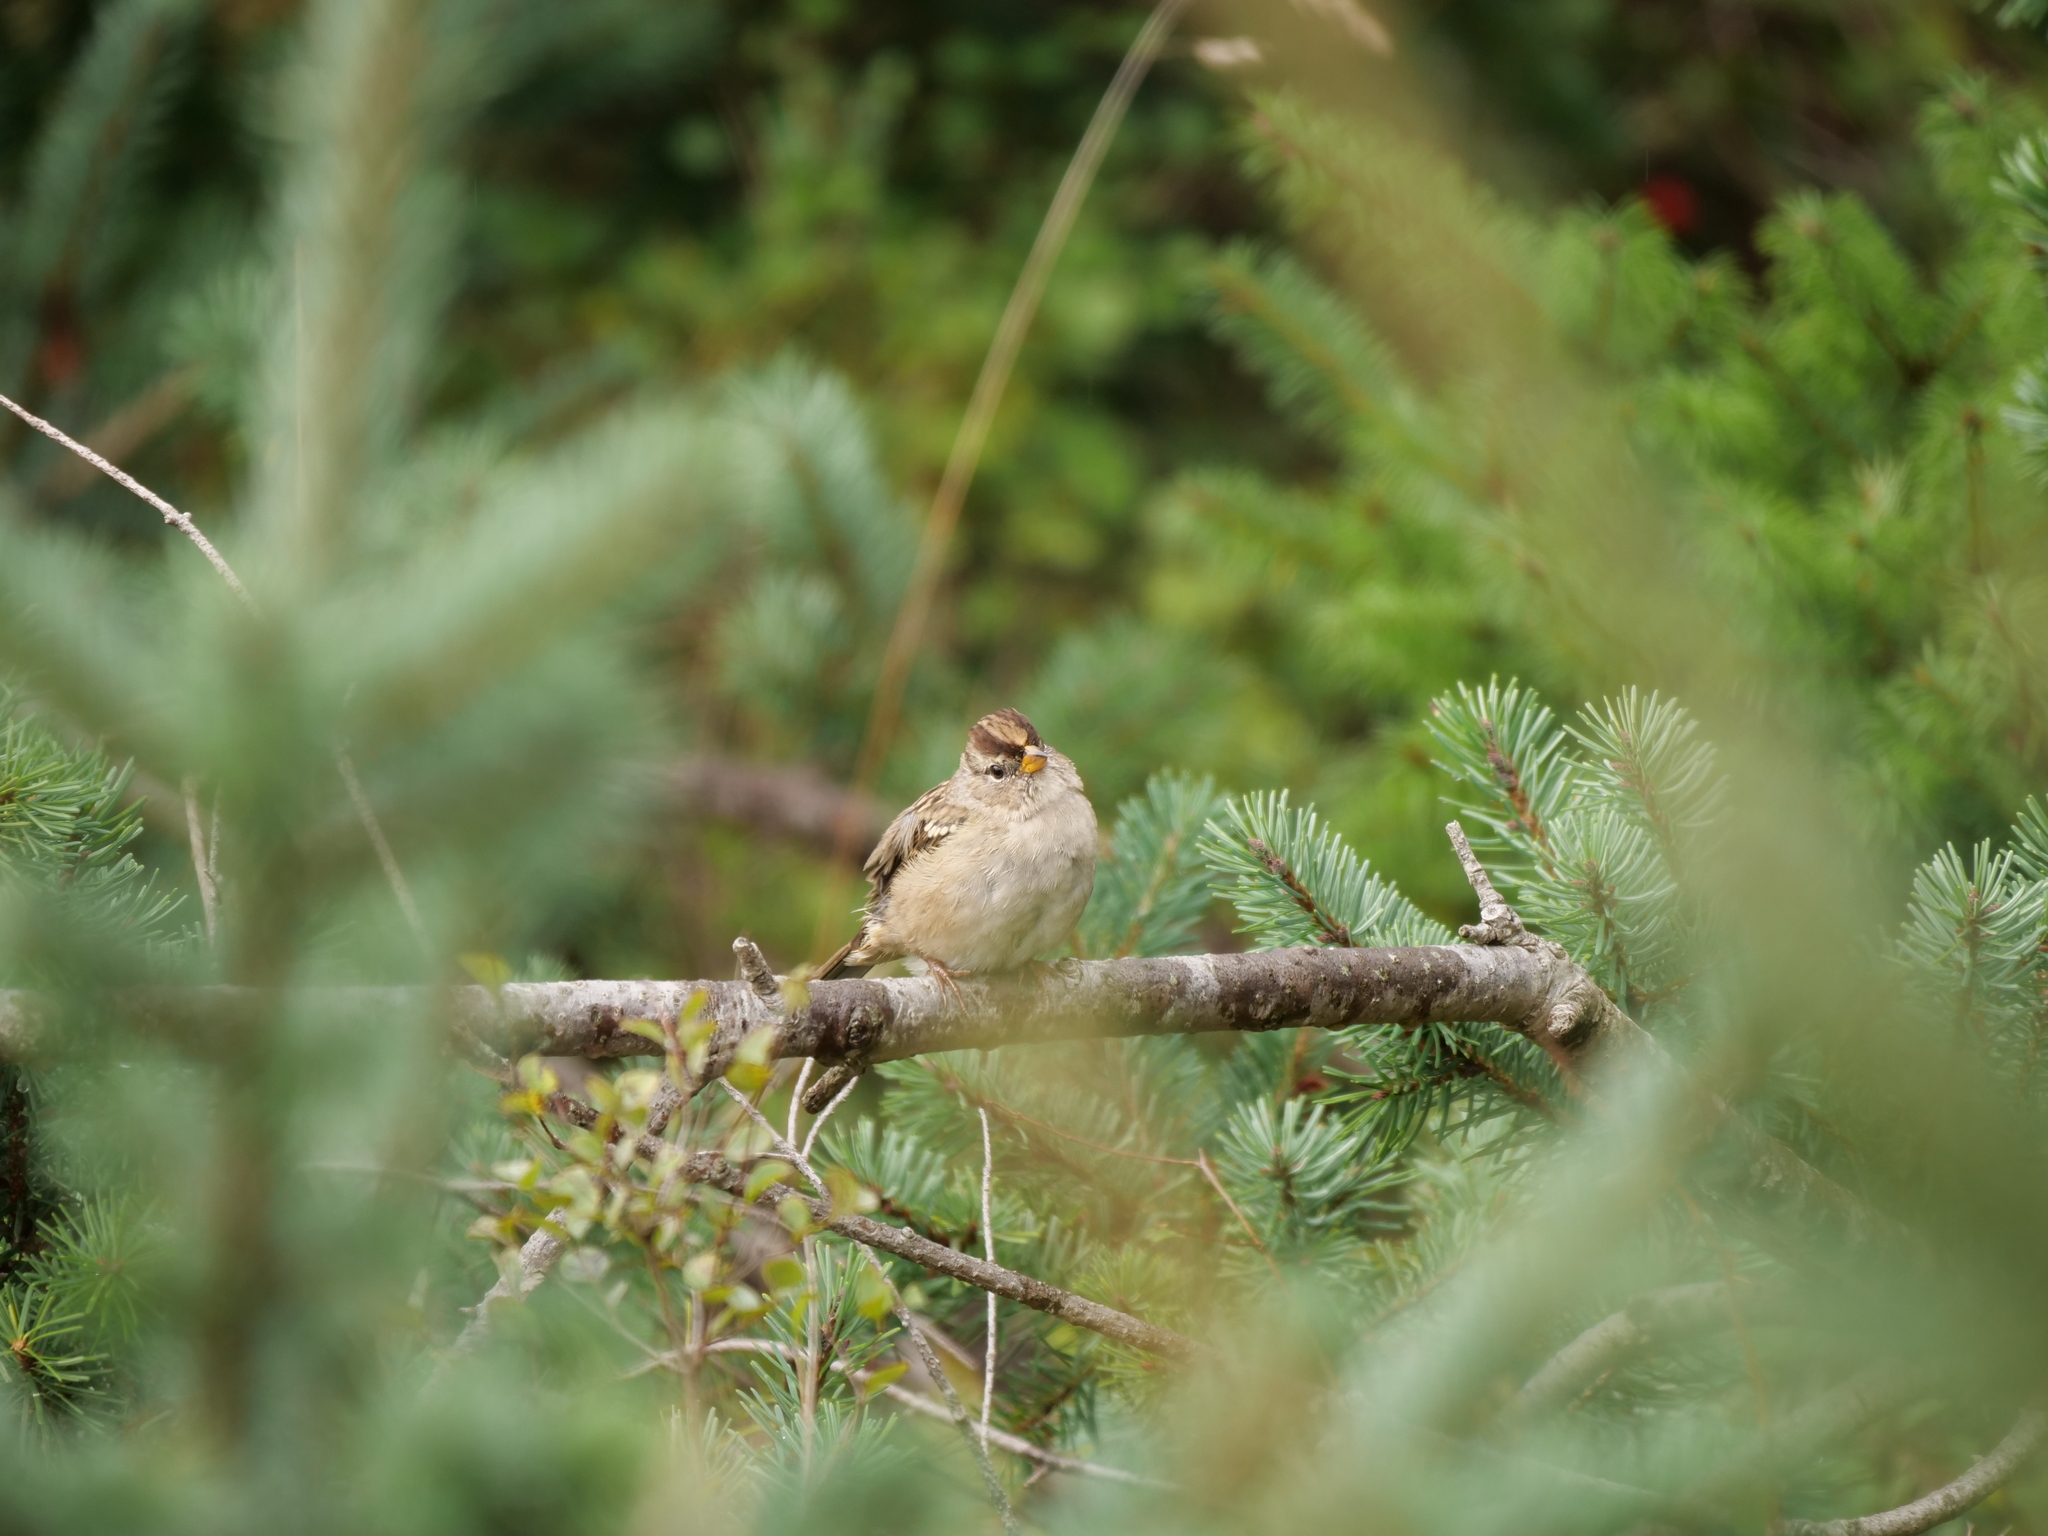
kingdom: Animalia
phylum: Chordata
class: Aves
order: Passeriformes
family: Passerellidae
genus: Zonotrichia
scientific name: Zonotrichia leucophrys
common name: White-crowned sparrow
